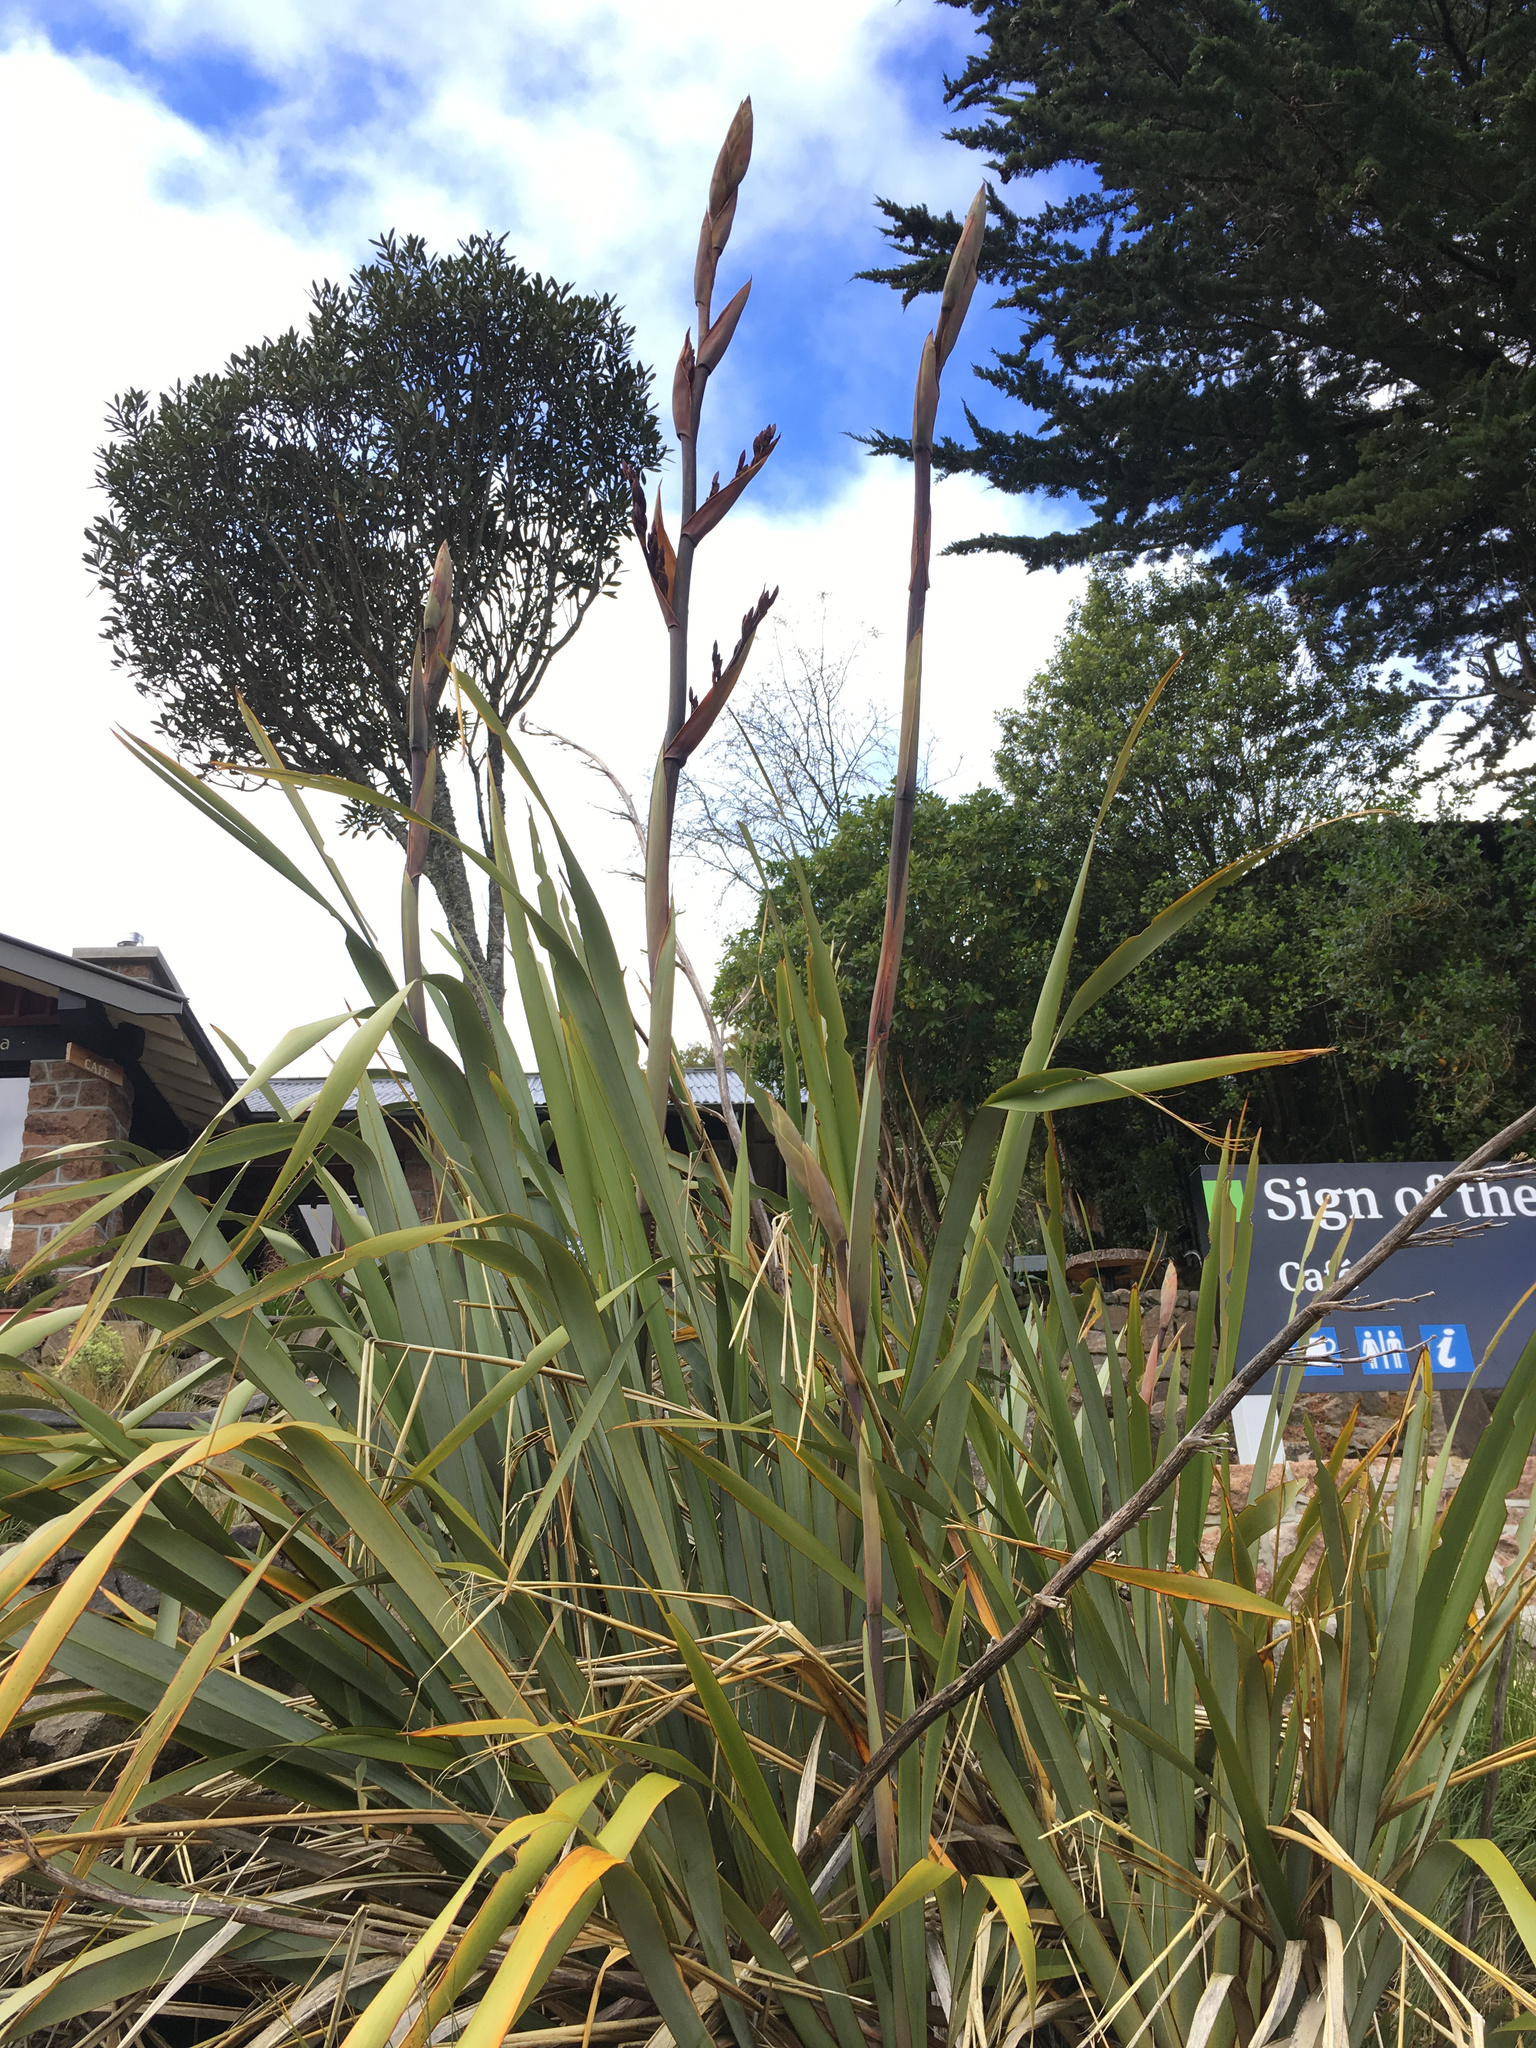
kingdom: Plantae
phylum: Tracheophyta
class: Liliopsida
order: Asparagales
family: Asphodelaceae
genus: Phormium
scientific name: Phormium tenax
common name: New zealand flax
